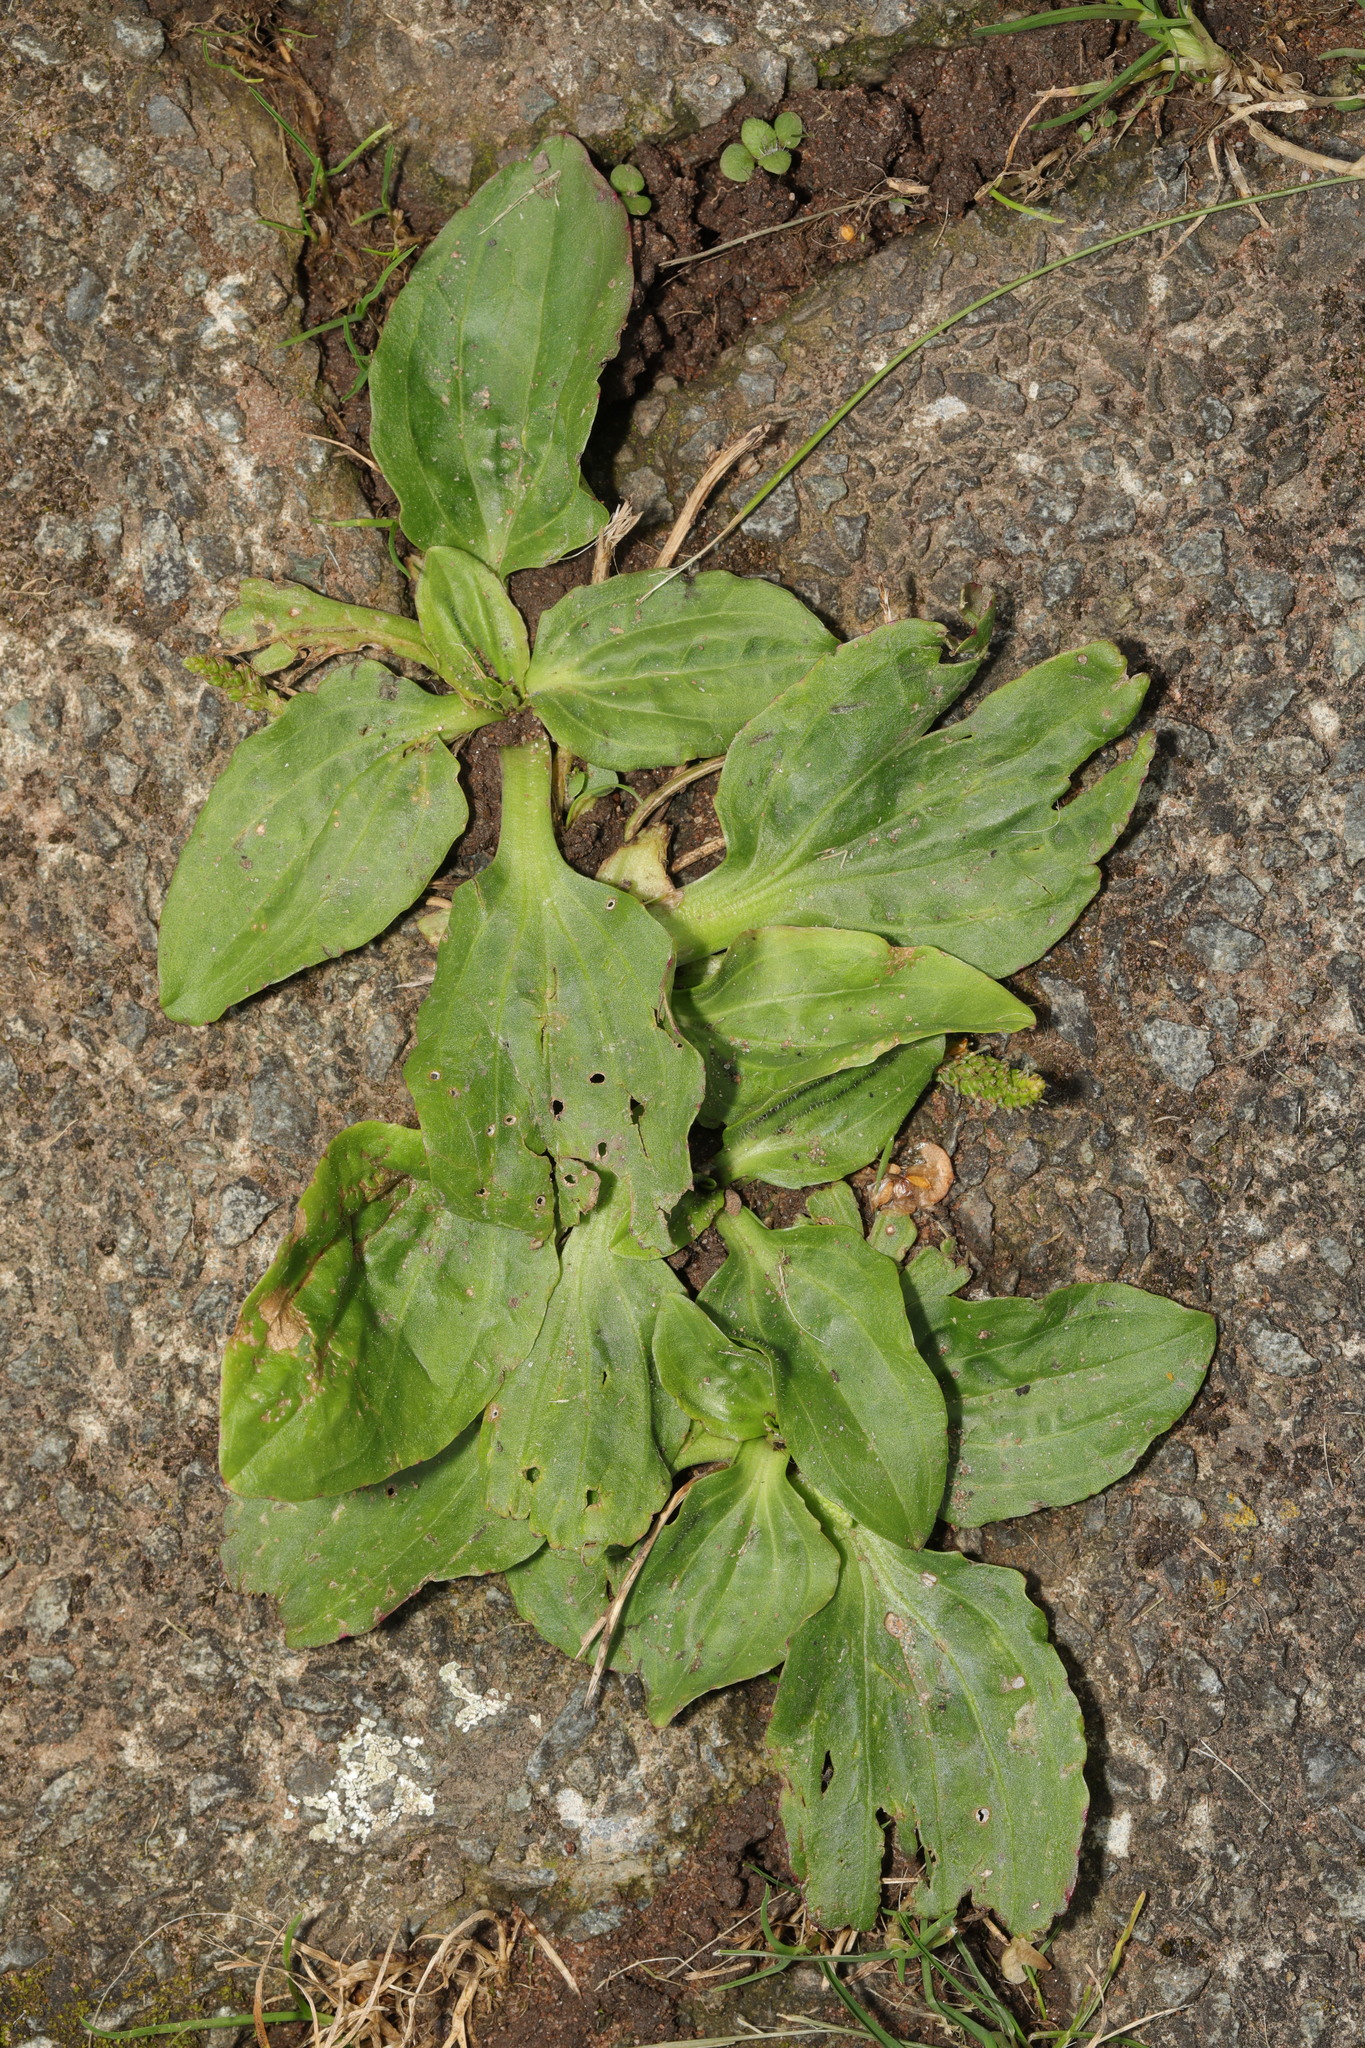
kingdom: Plantae
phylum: Tracheophyta
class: Magnoliopsida
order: Lamiales
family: Plantaginaceae
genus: Plantago
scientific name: Plantago major
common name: Common plantain
